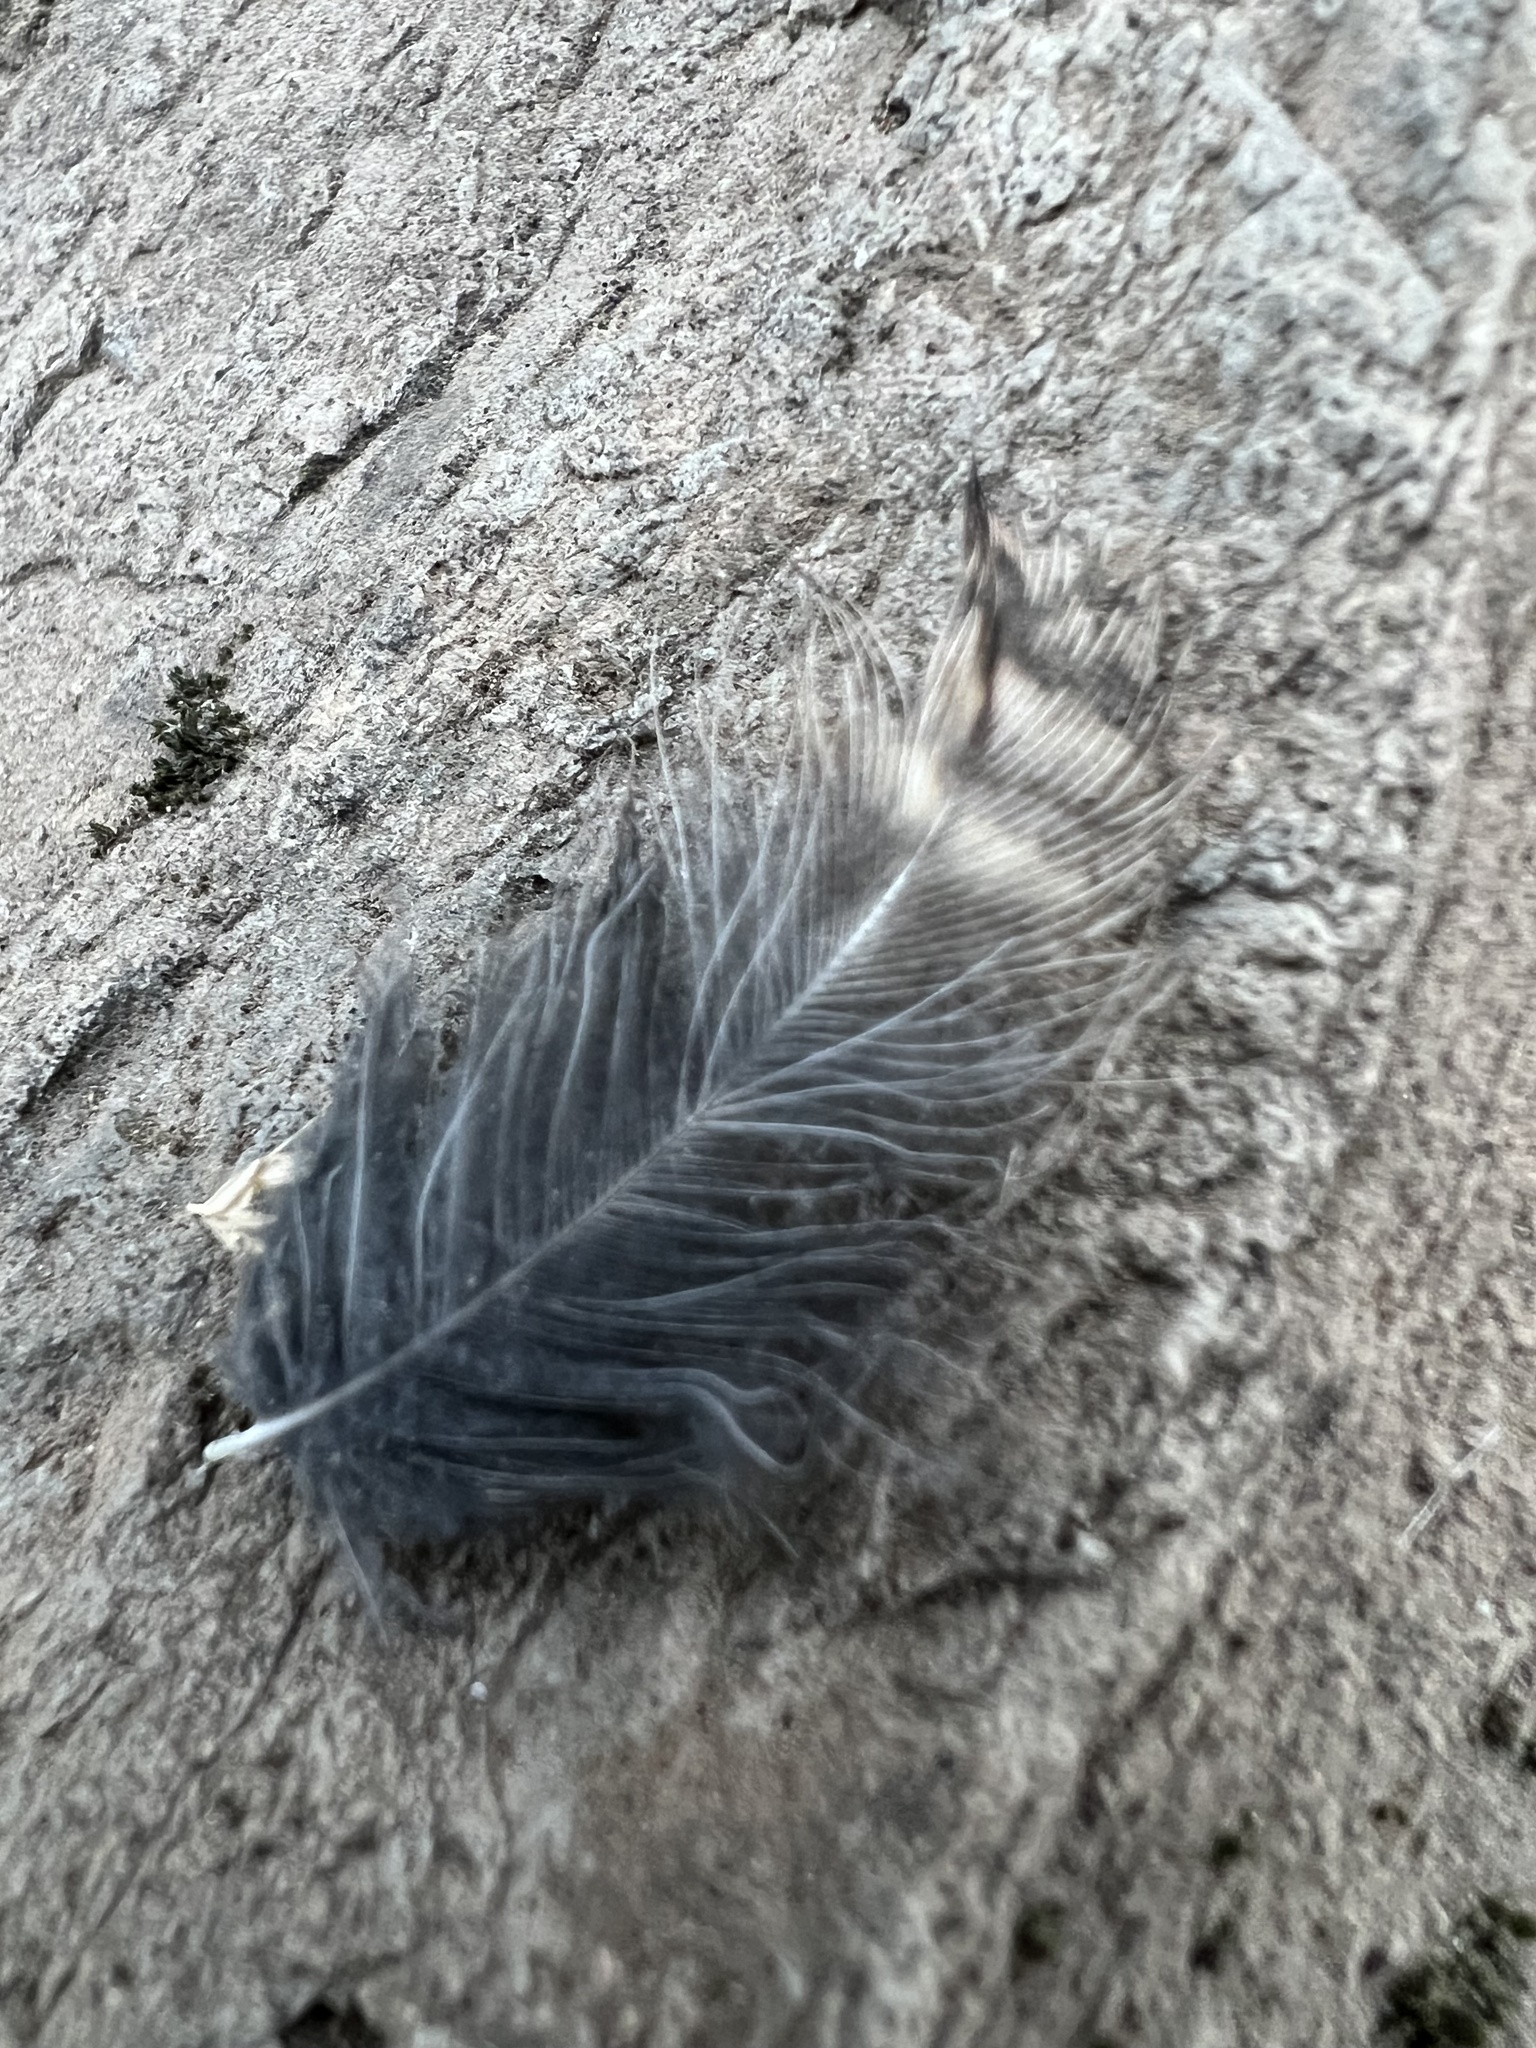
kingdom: Animalia
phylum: Chordata
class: Aves
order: Strigiformes
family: Strigidae
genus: Megascops
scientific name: Megascops kennicottii
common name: Western screech-owl
